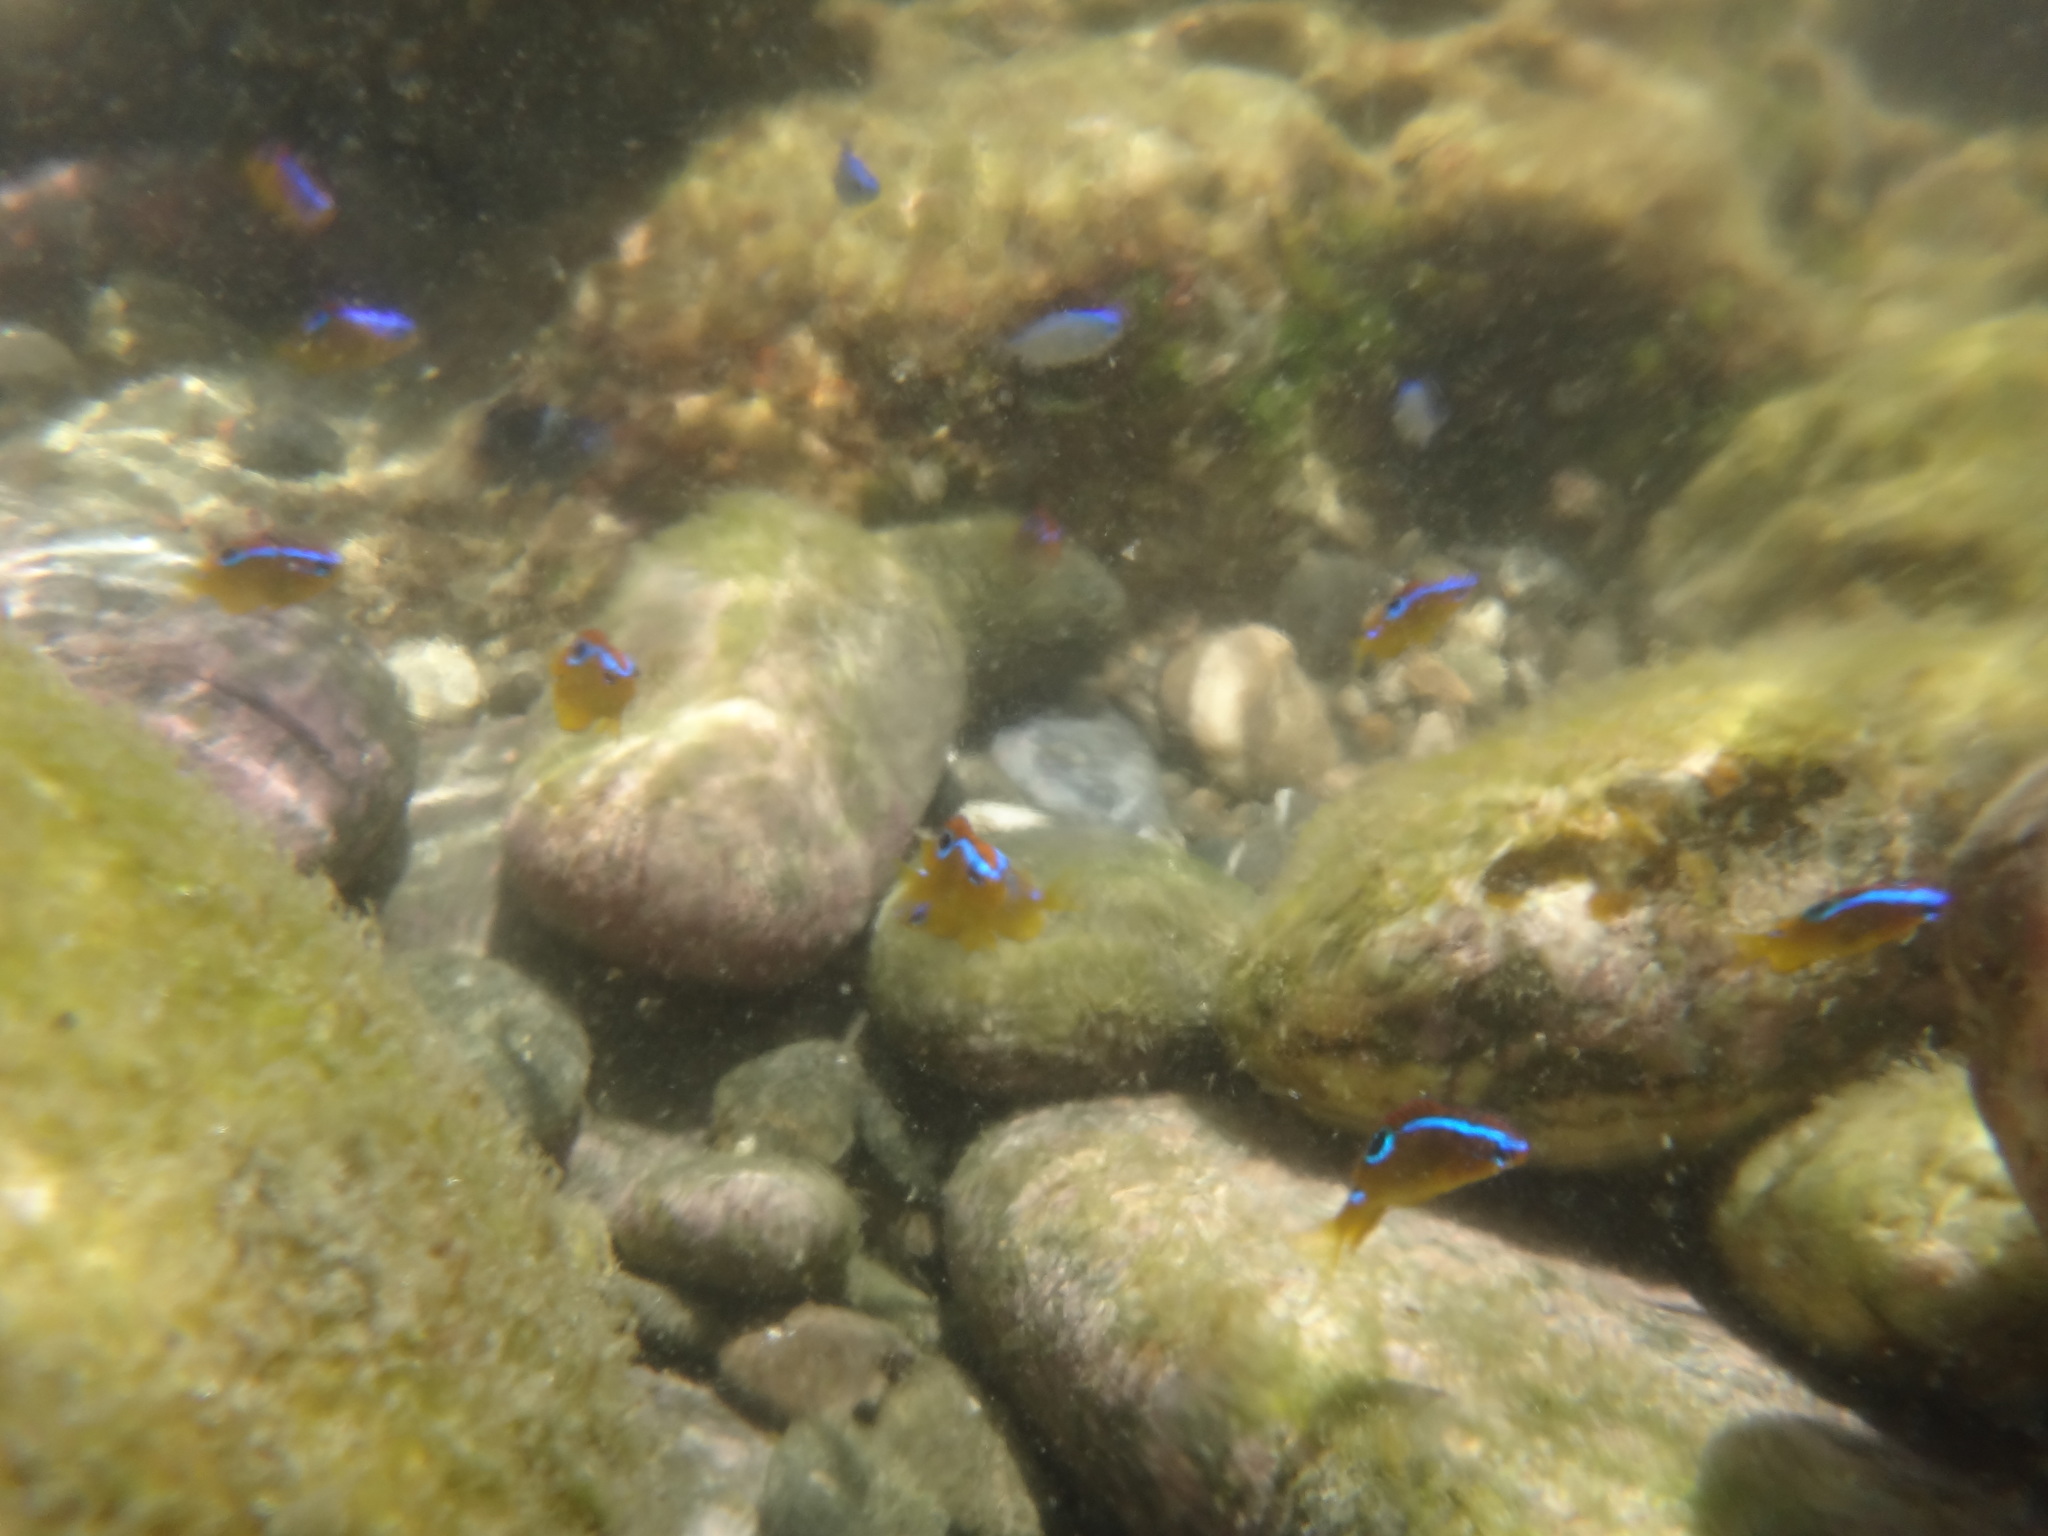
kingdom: Animalia
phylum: Chordata
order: Perciformes
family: Pomacentridae
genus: Chrysiptera
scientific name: Chrysiptera unimaculata
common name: Onespot demoiselle
